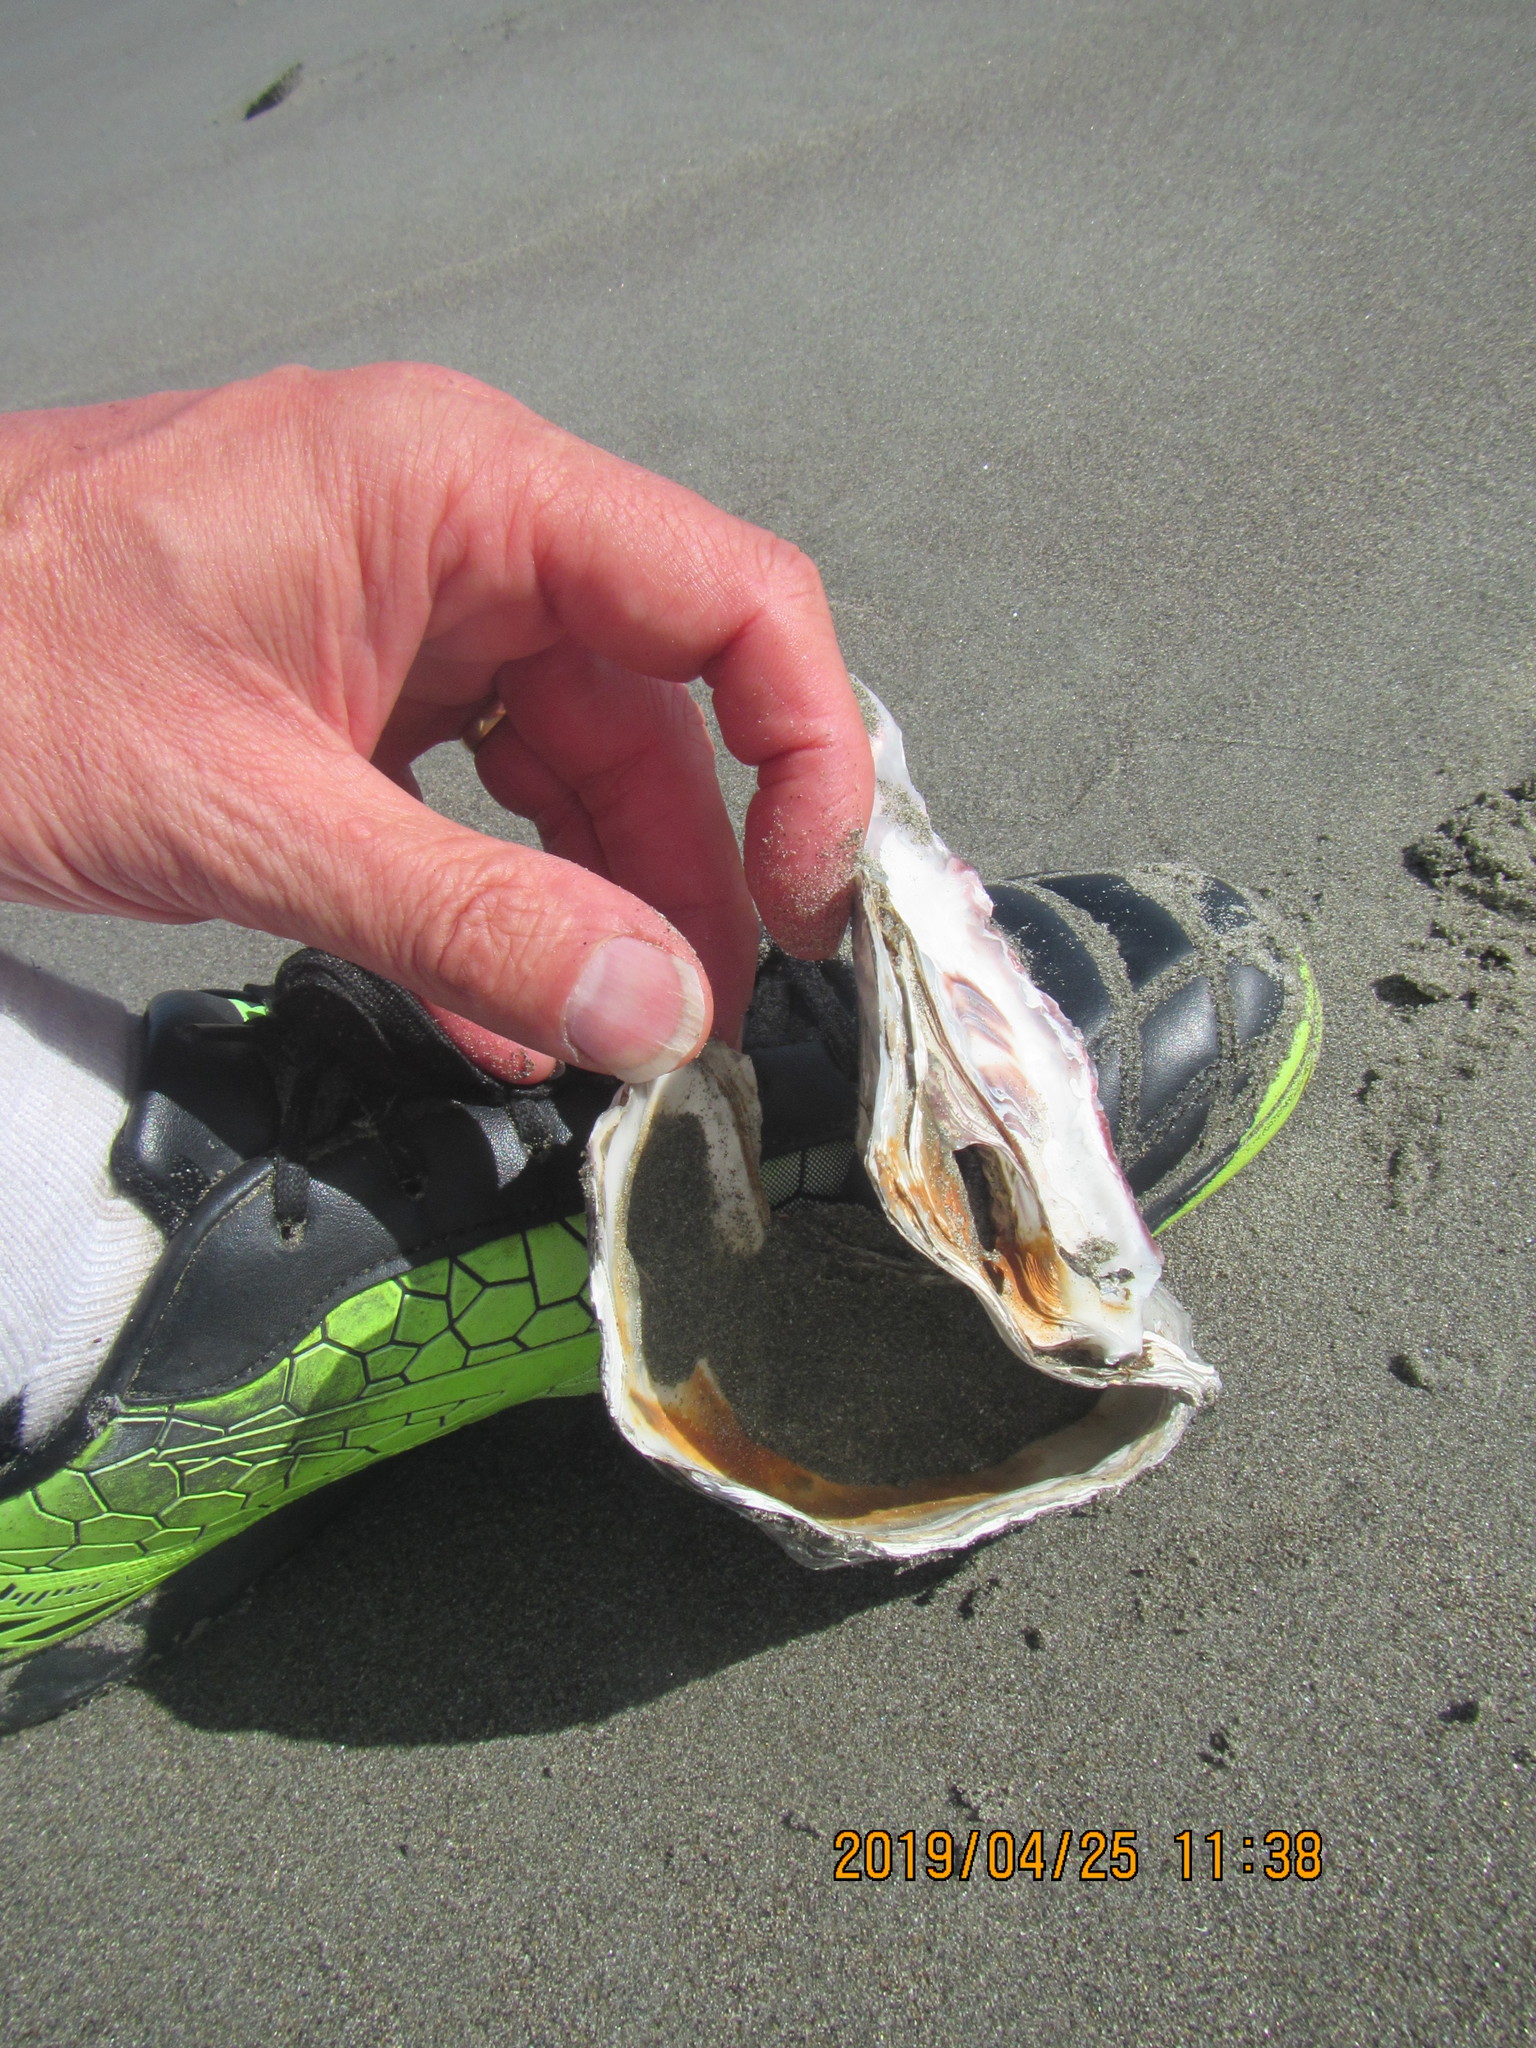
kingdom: Animalia
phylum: Mollusca
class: Bivalvia
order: Ostreida
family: Ostreidae
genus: Magallana
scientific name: Magallana gigas
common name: Pacific oyster
